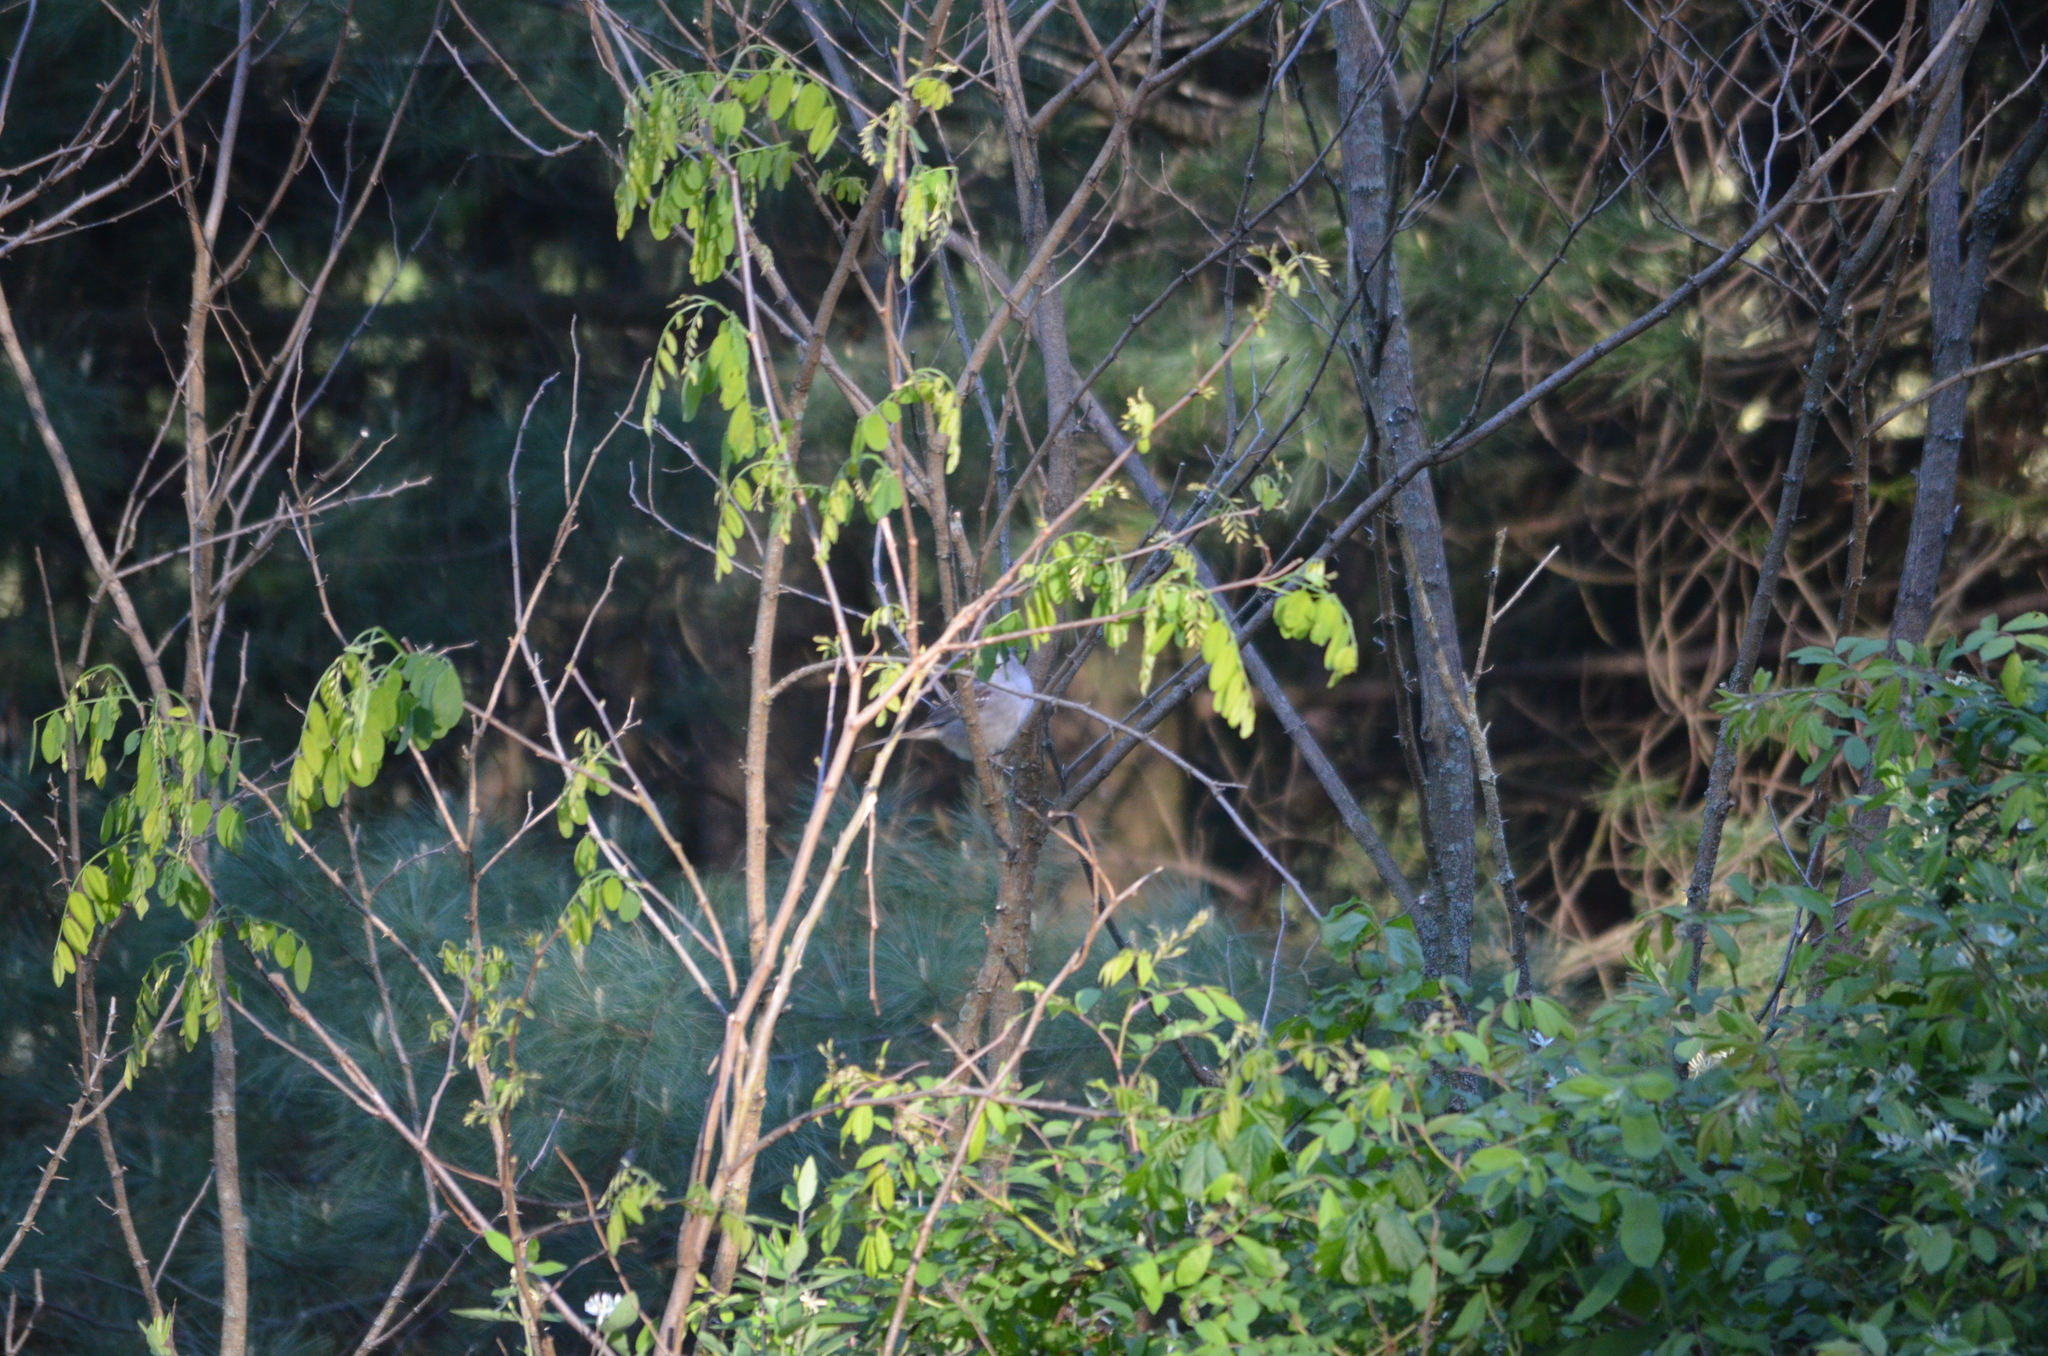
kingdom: Animalia
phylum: Chordata
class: Aves
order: Passeriformes
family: Passerellidae
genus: Zonotrichia
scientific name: Zonotrichia leucophrys
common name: White-crowned sparrow
